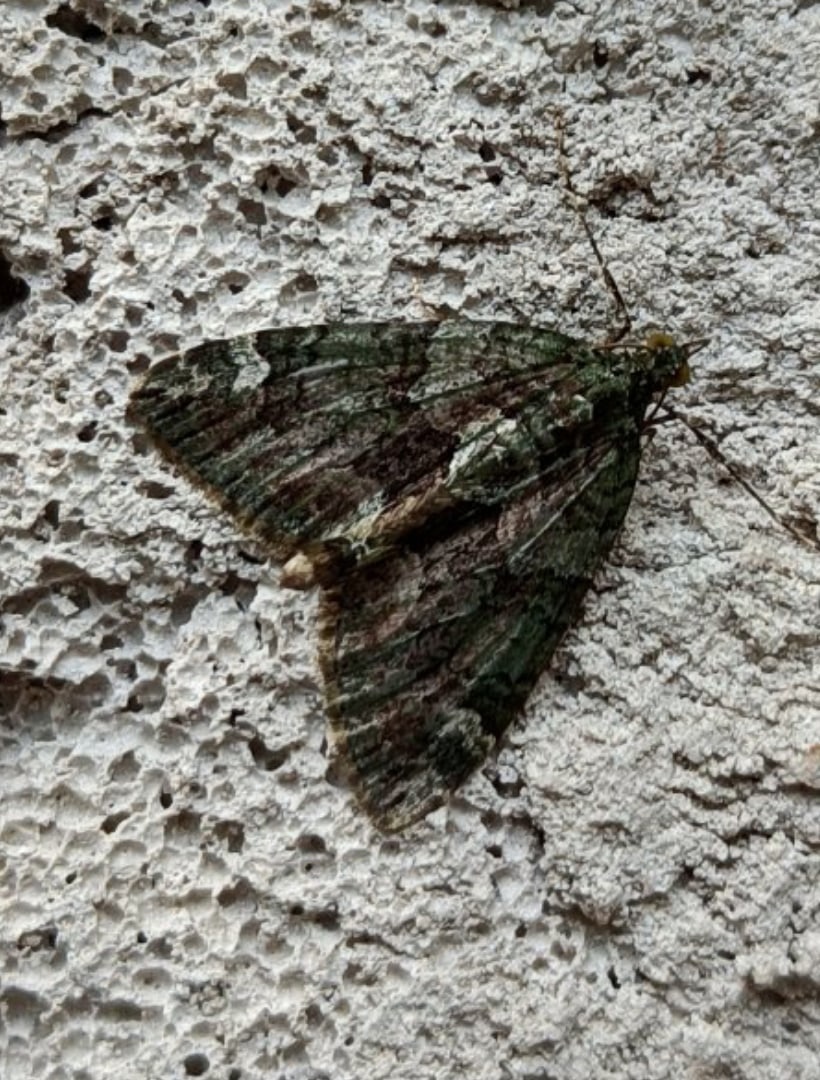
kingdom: Animalia
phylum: Arthropoda
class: Insecta
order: Lepidoptera
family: Geometridae
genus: Chloroclysta
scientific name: Chloroclysta siterata
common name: Red-green carpet
